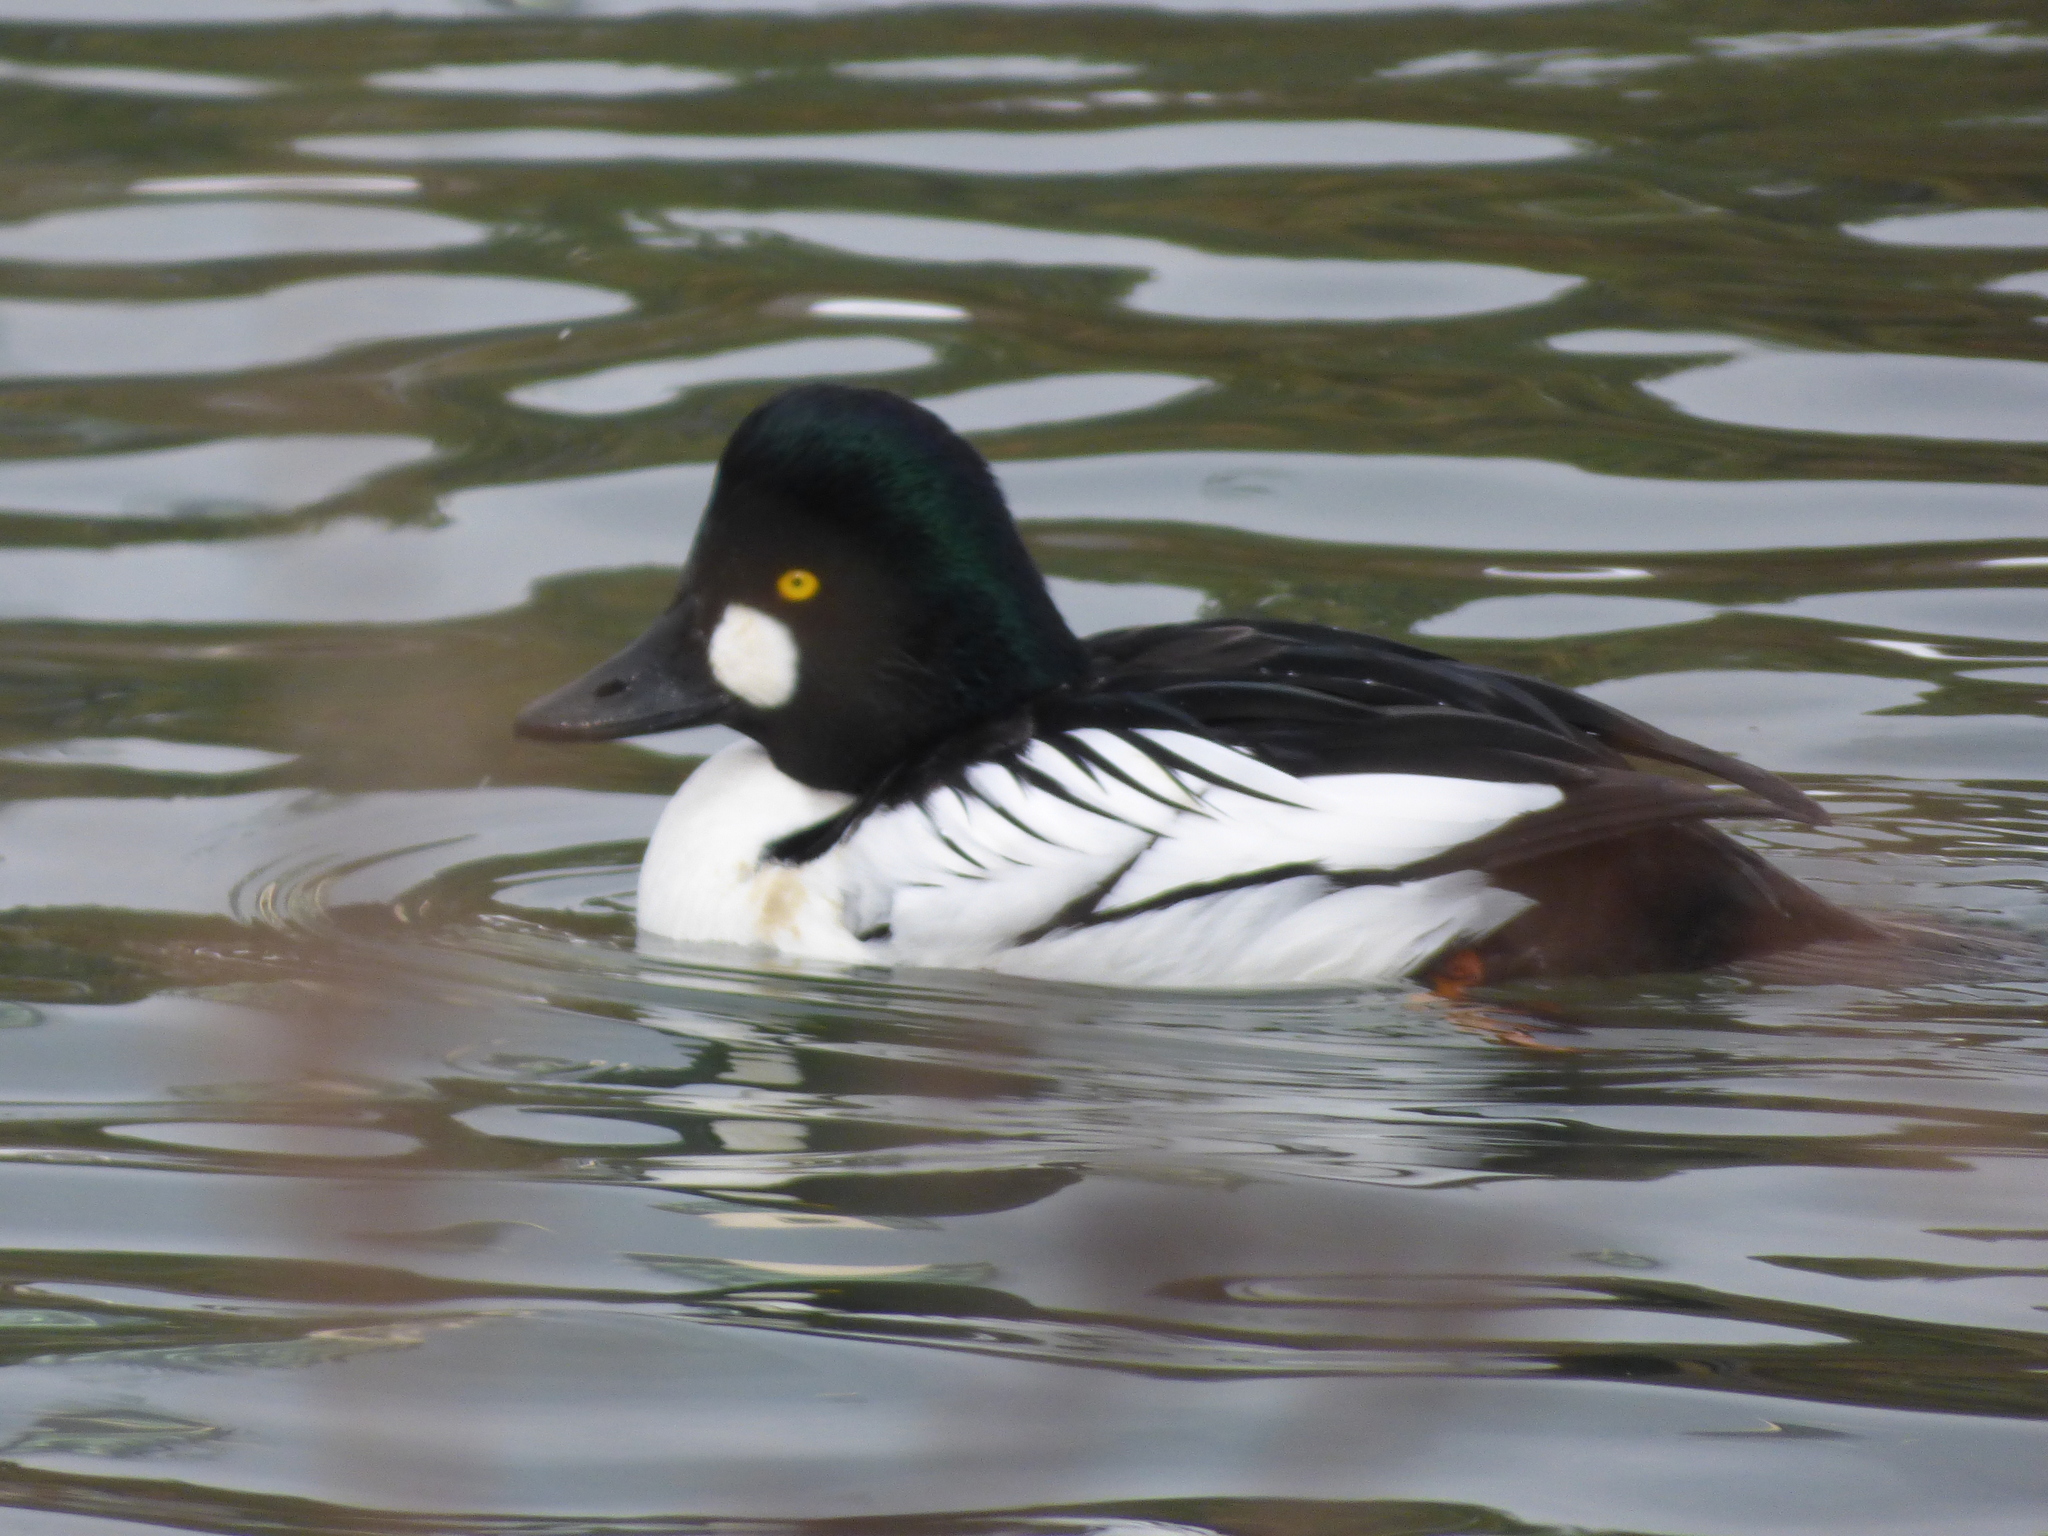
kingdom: Animalia
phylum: Chordata
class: Aves
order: Anseriformes
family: Anatidae
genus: Bucephala
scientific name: Bucephala clangula
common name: Common goldeneye
